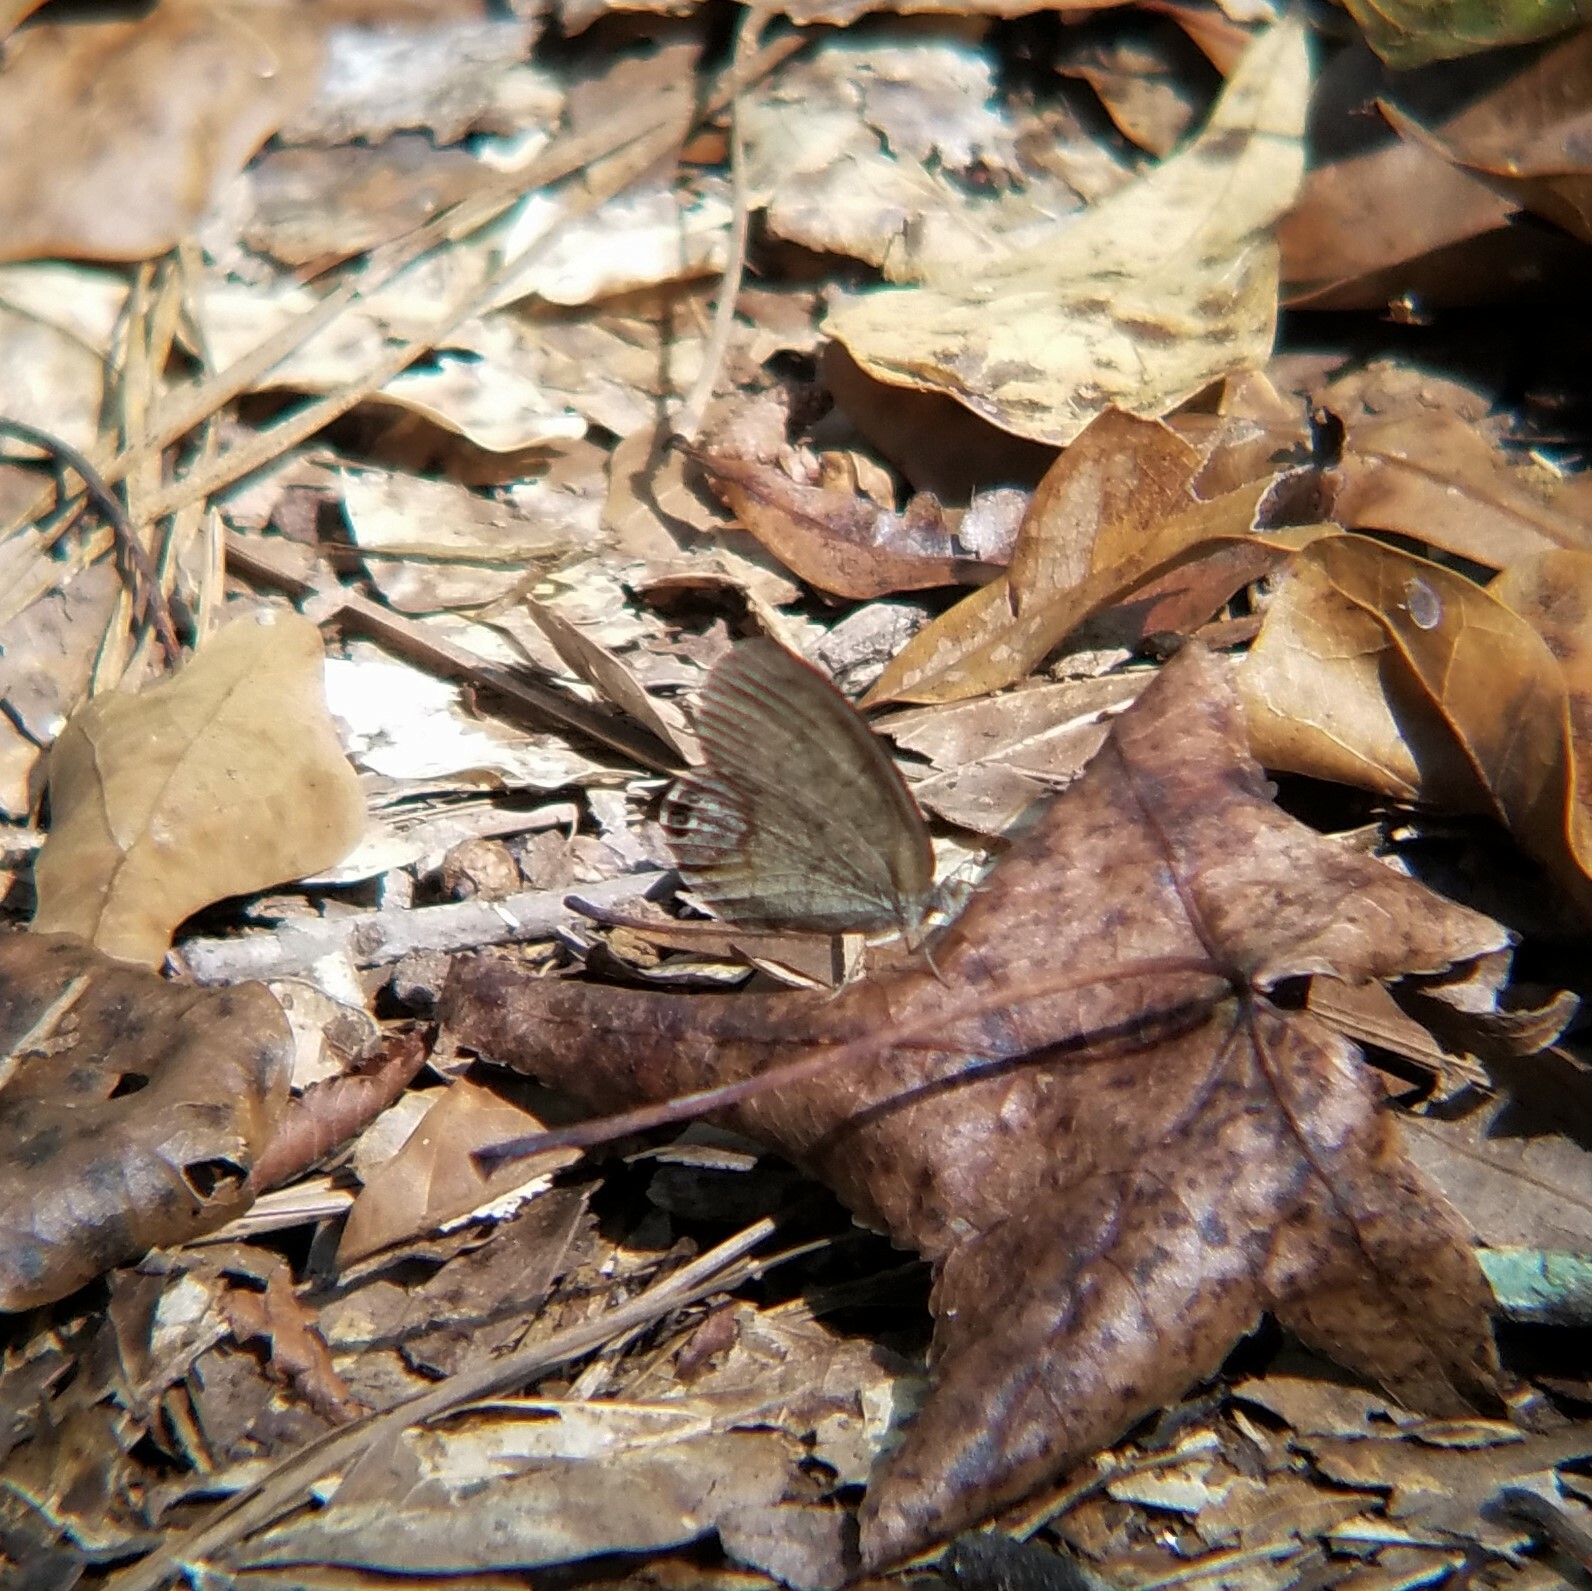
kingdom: Animalia
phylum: Arthropoda
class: Insecta
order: Lepidoptera
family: Nymphalidae
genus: Euptychia
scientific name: Euptychia cornelius
